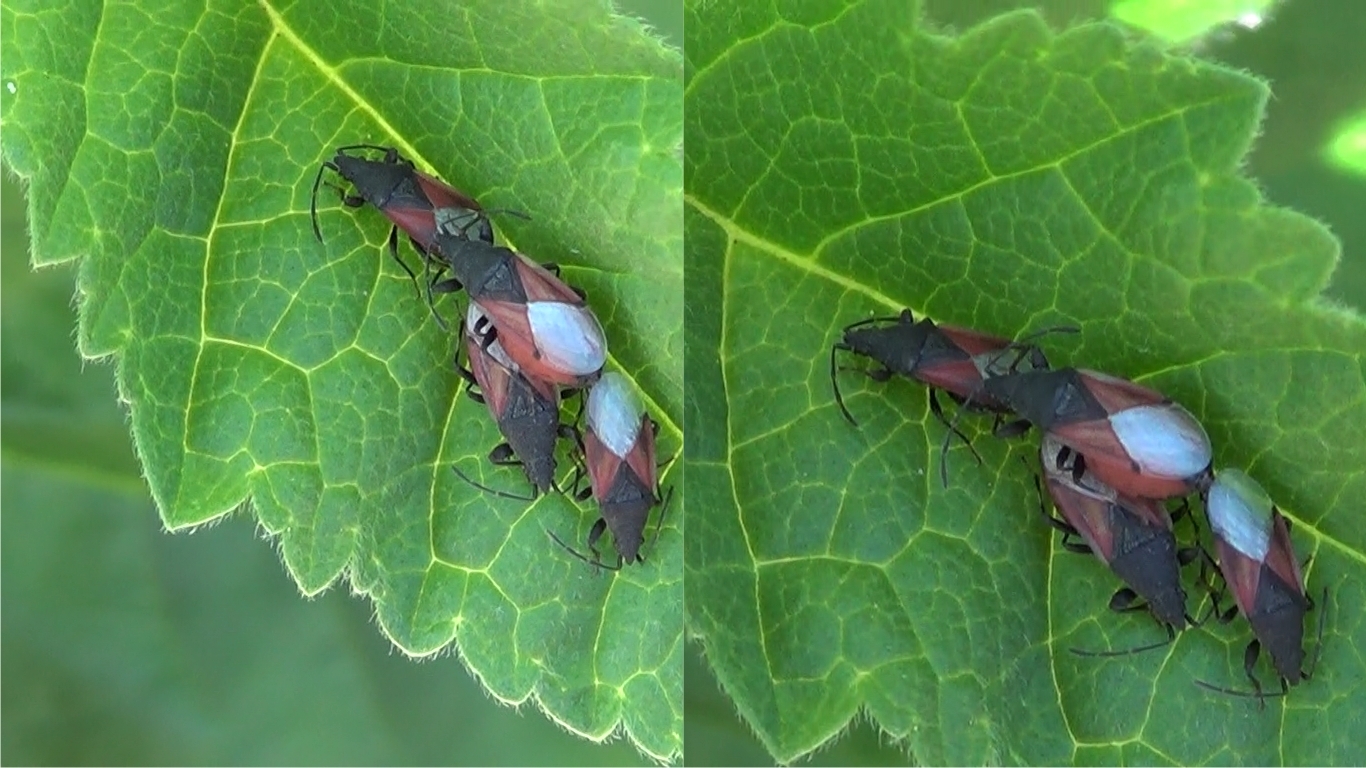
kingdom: Animalia
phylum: Arthropoda
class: Insecta
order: Hemiptera
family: Oxycarenidae
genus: Oxycarenus
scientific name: Oxycarenus lavaterae
